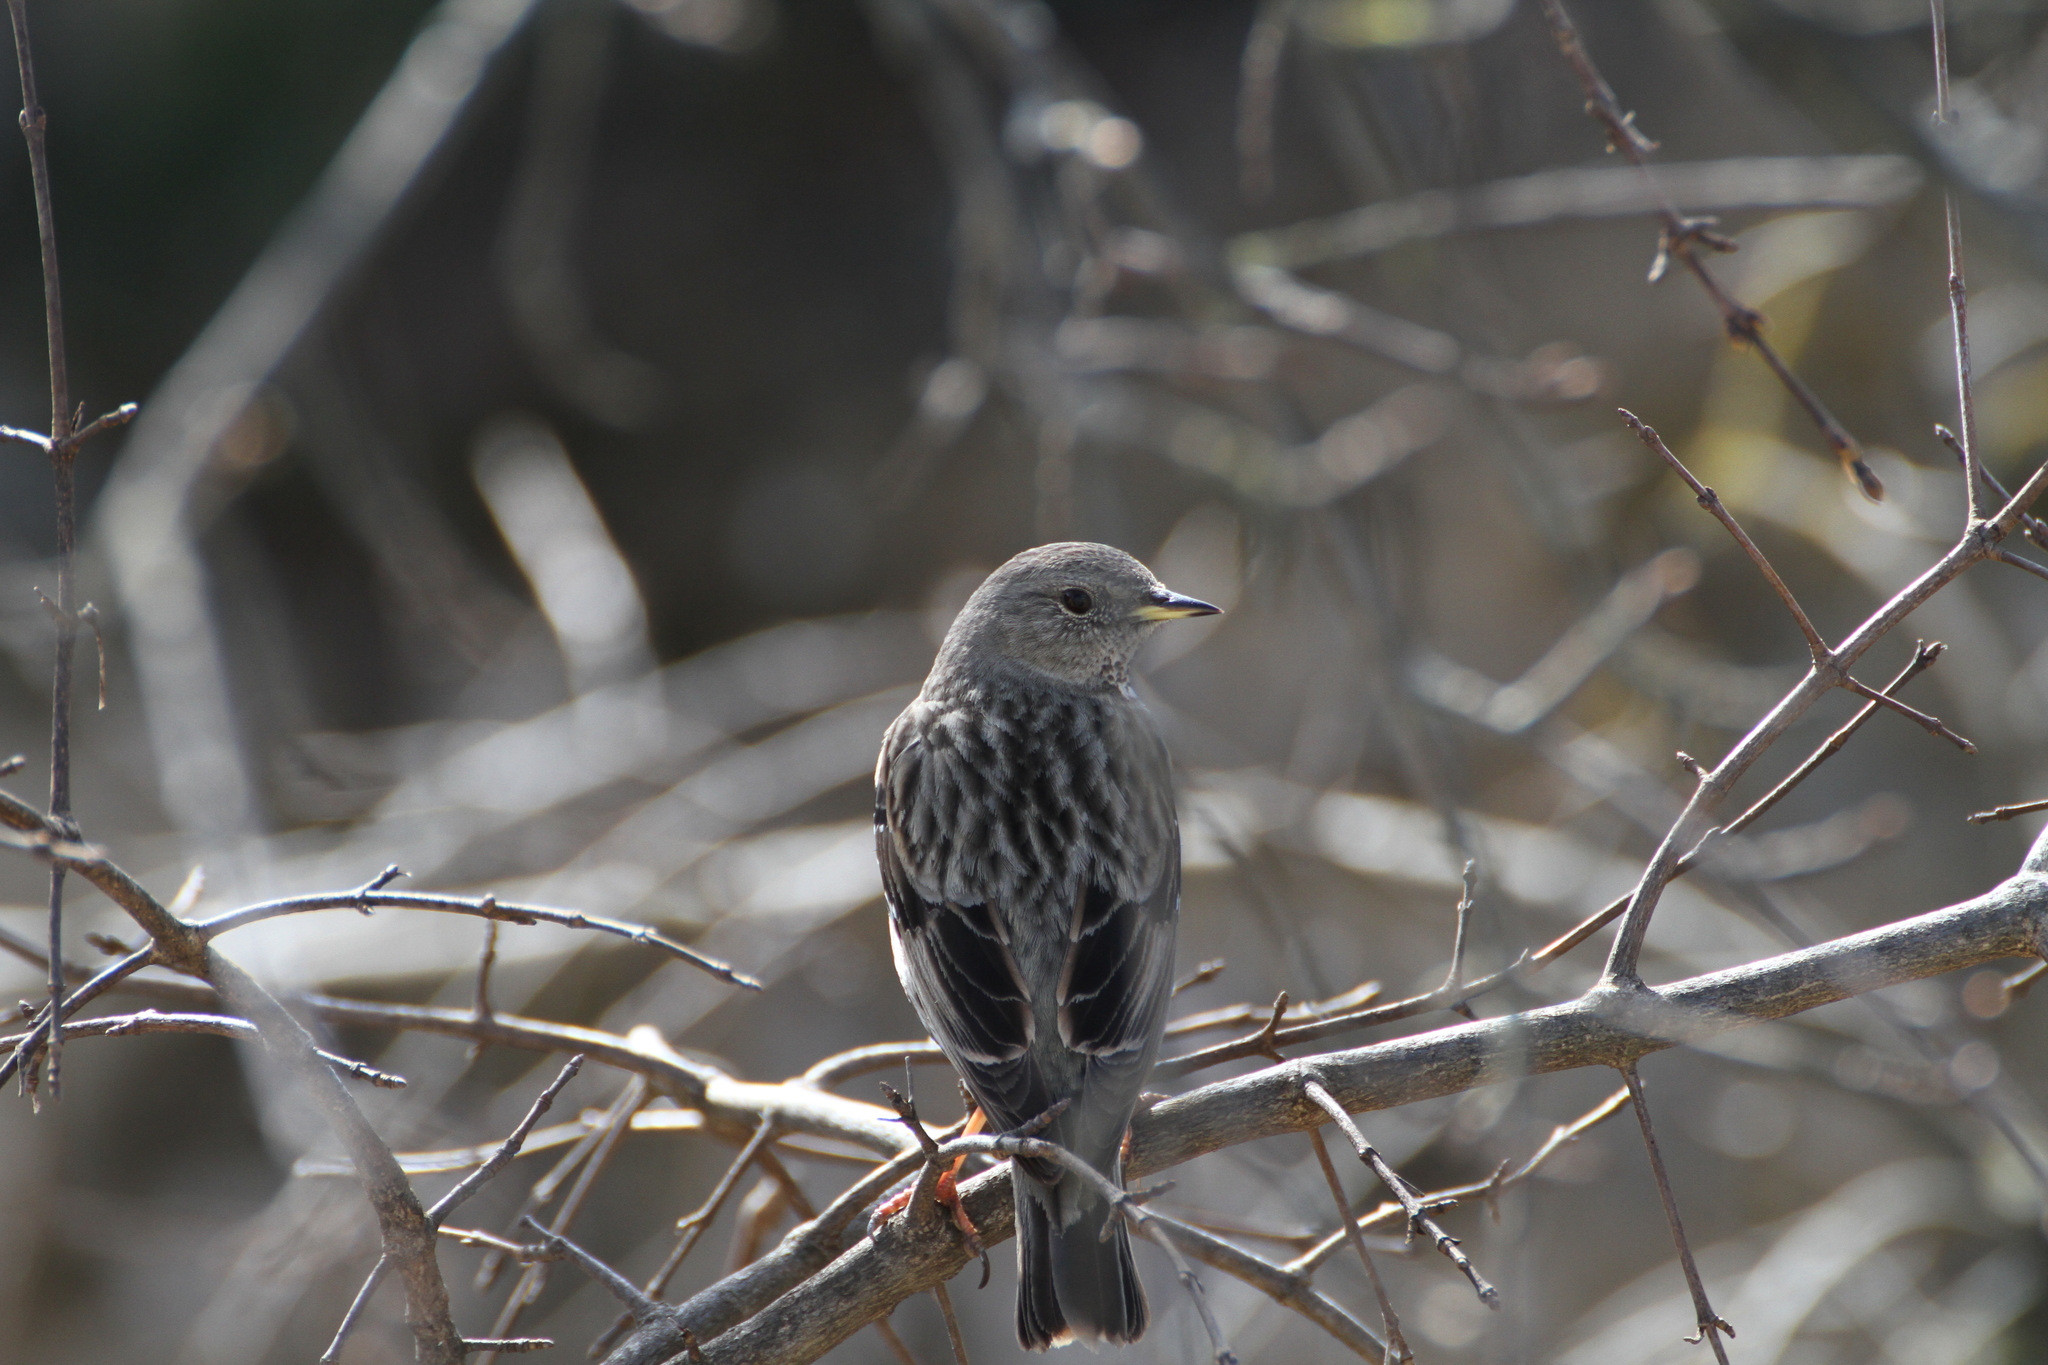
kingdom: Animalia
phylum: Chordata
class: Aves
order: Passeriformes
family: Prunellidae
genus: Prunella
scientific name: Prunella collaris
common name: Alpine accentor
